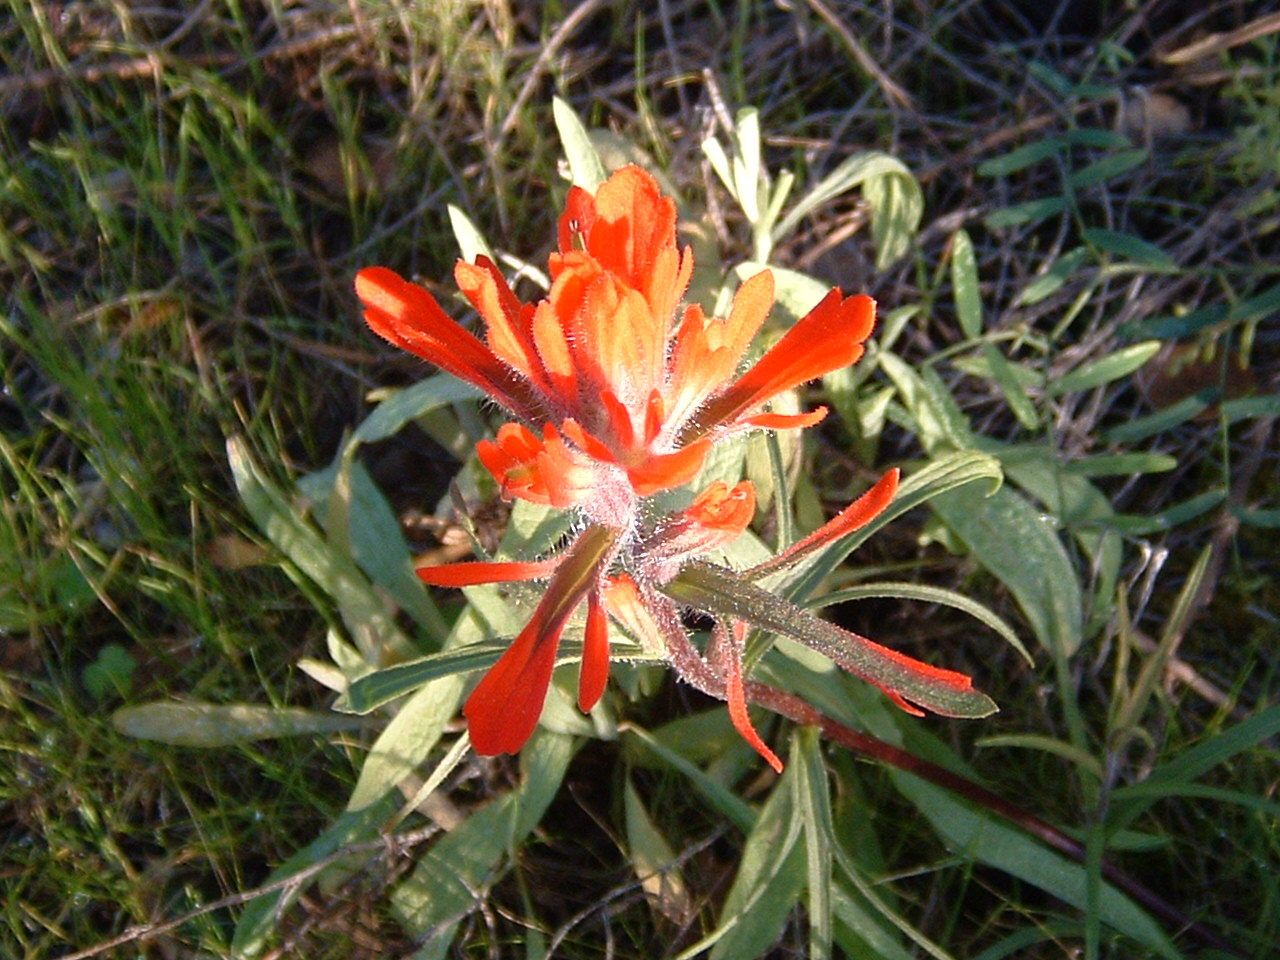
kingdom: Plantae
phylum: Tracheophyta
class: Magnoliopsida
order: Lamiales
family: Orobanchaceae
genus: Castilleja
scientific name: Castilleja affinis
